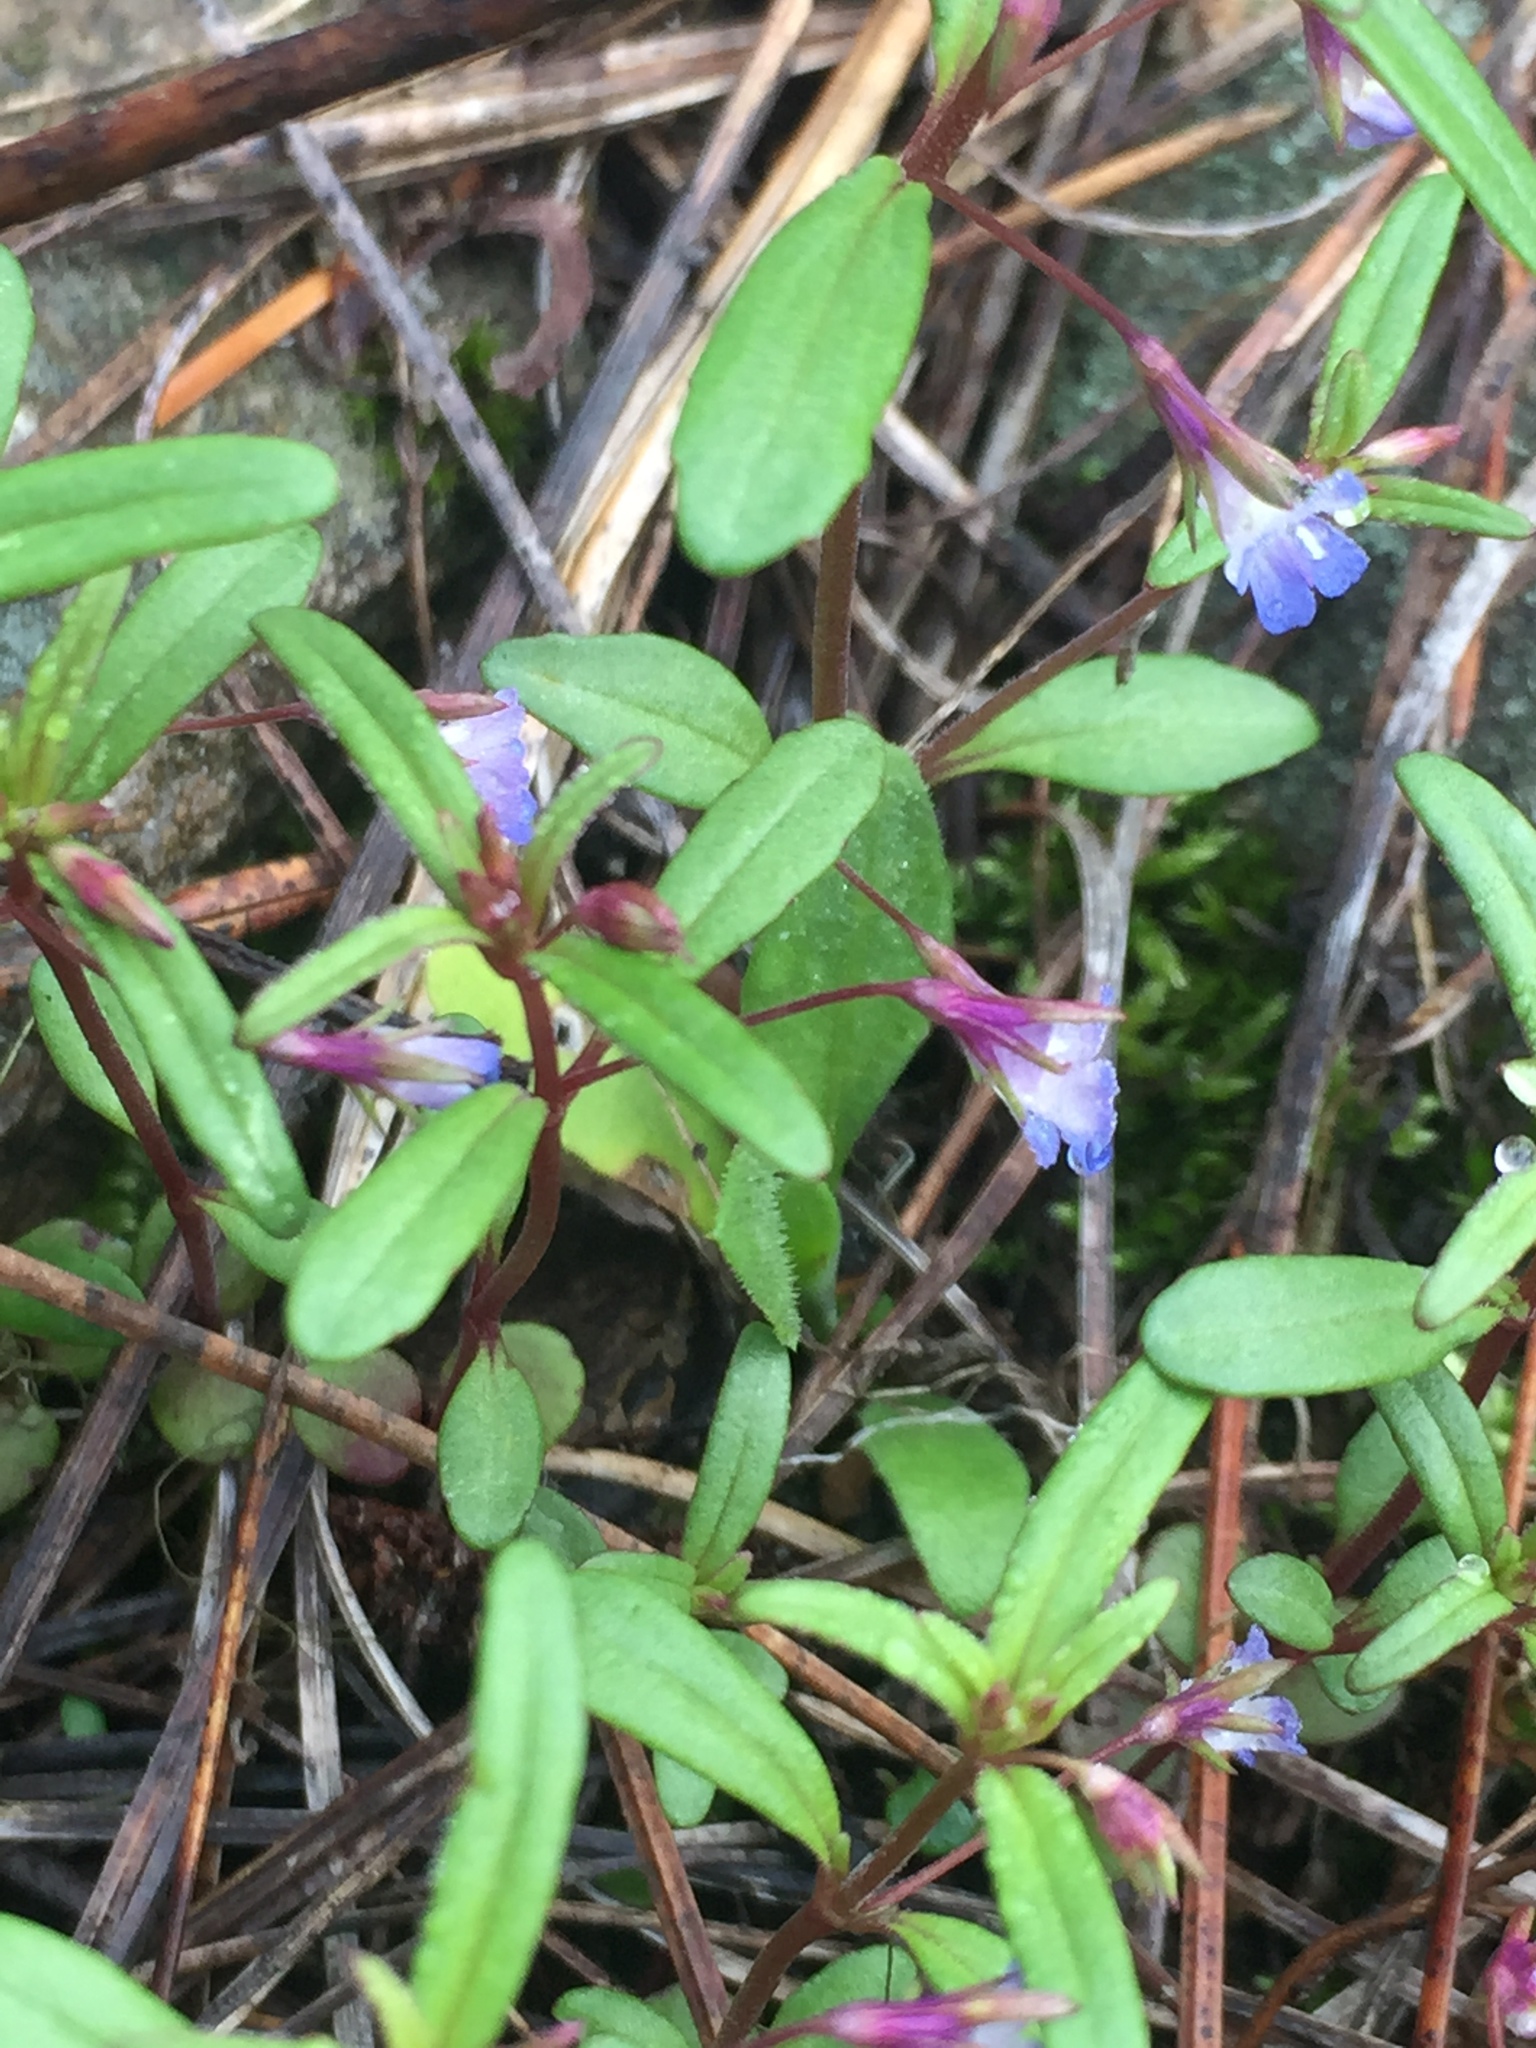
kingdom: Plantae
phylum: Tracheophyta
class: Magnoliopsida
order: Lamiales
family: Plantaginaceae
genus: Collinsia
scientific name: Collinsia parviflora
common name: Blue-lips
